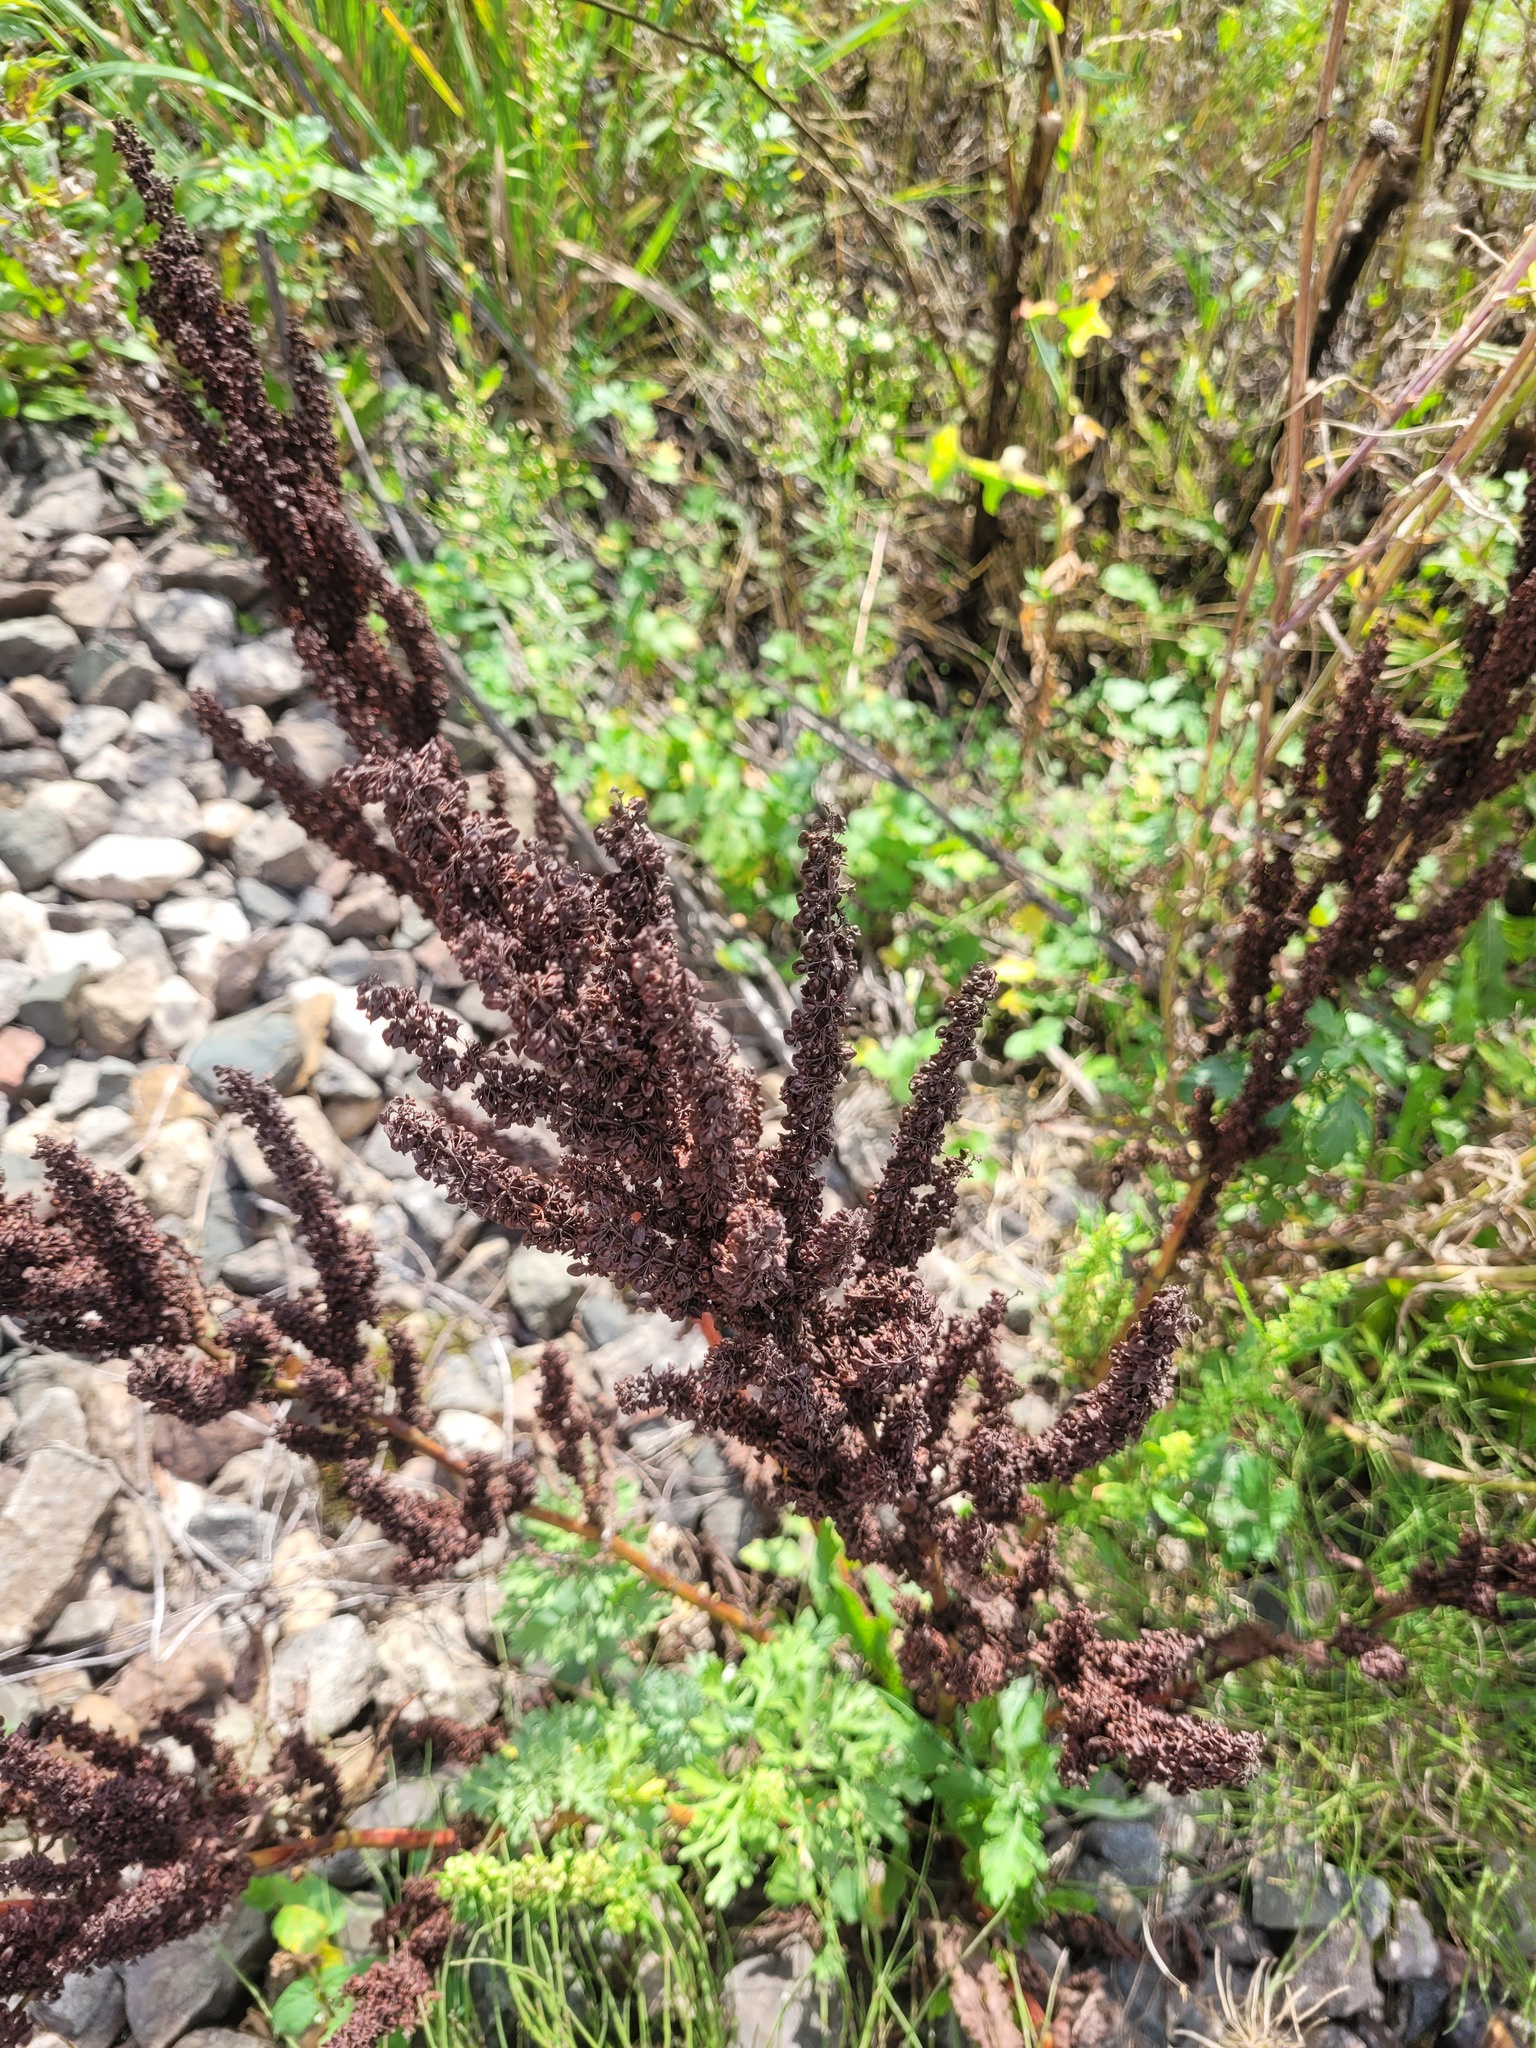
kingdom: Plantae
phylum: Tracheophyta
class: Magnoliopsida
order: Caryophyllales
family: Polygonaceae
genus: Rumex
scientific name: Rumex crispus
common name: Curled dock
